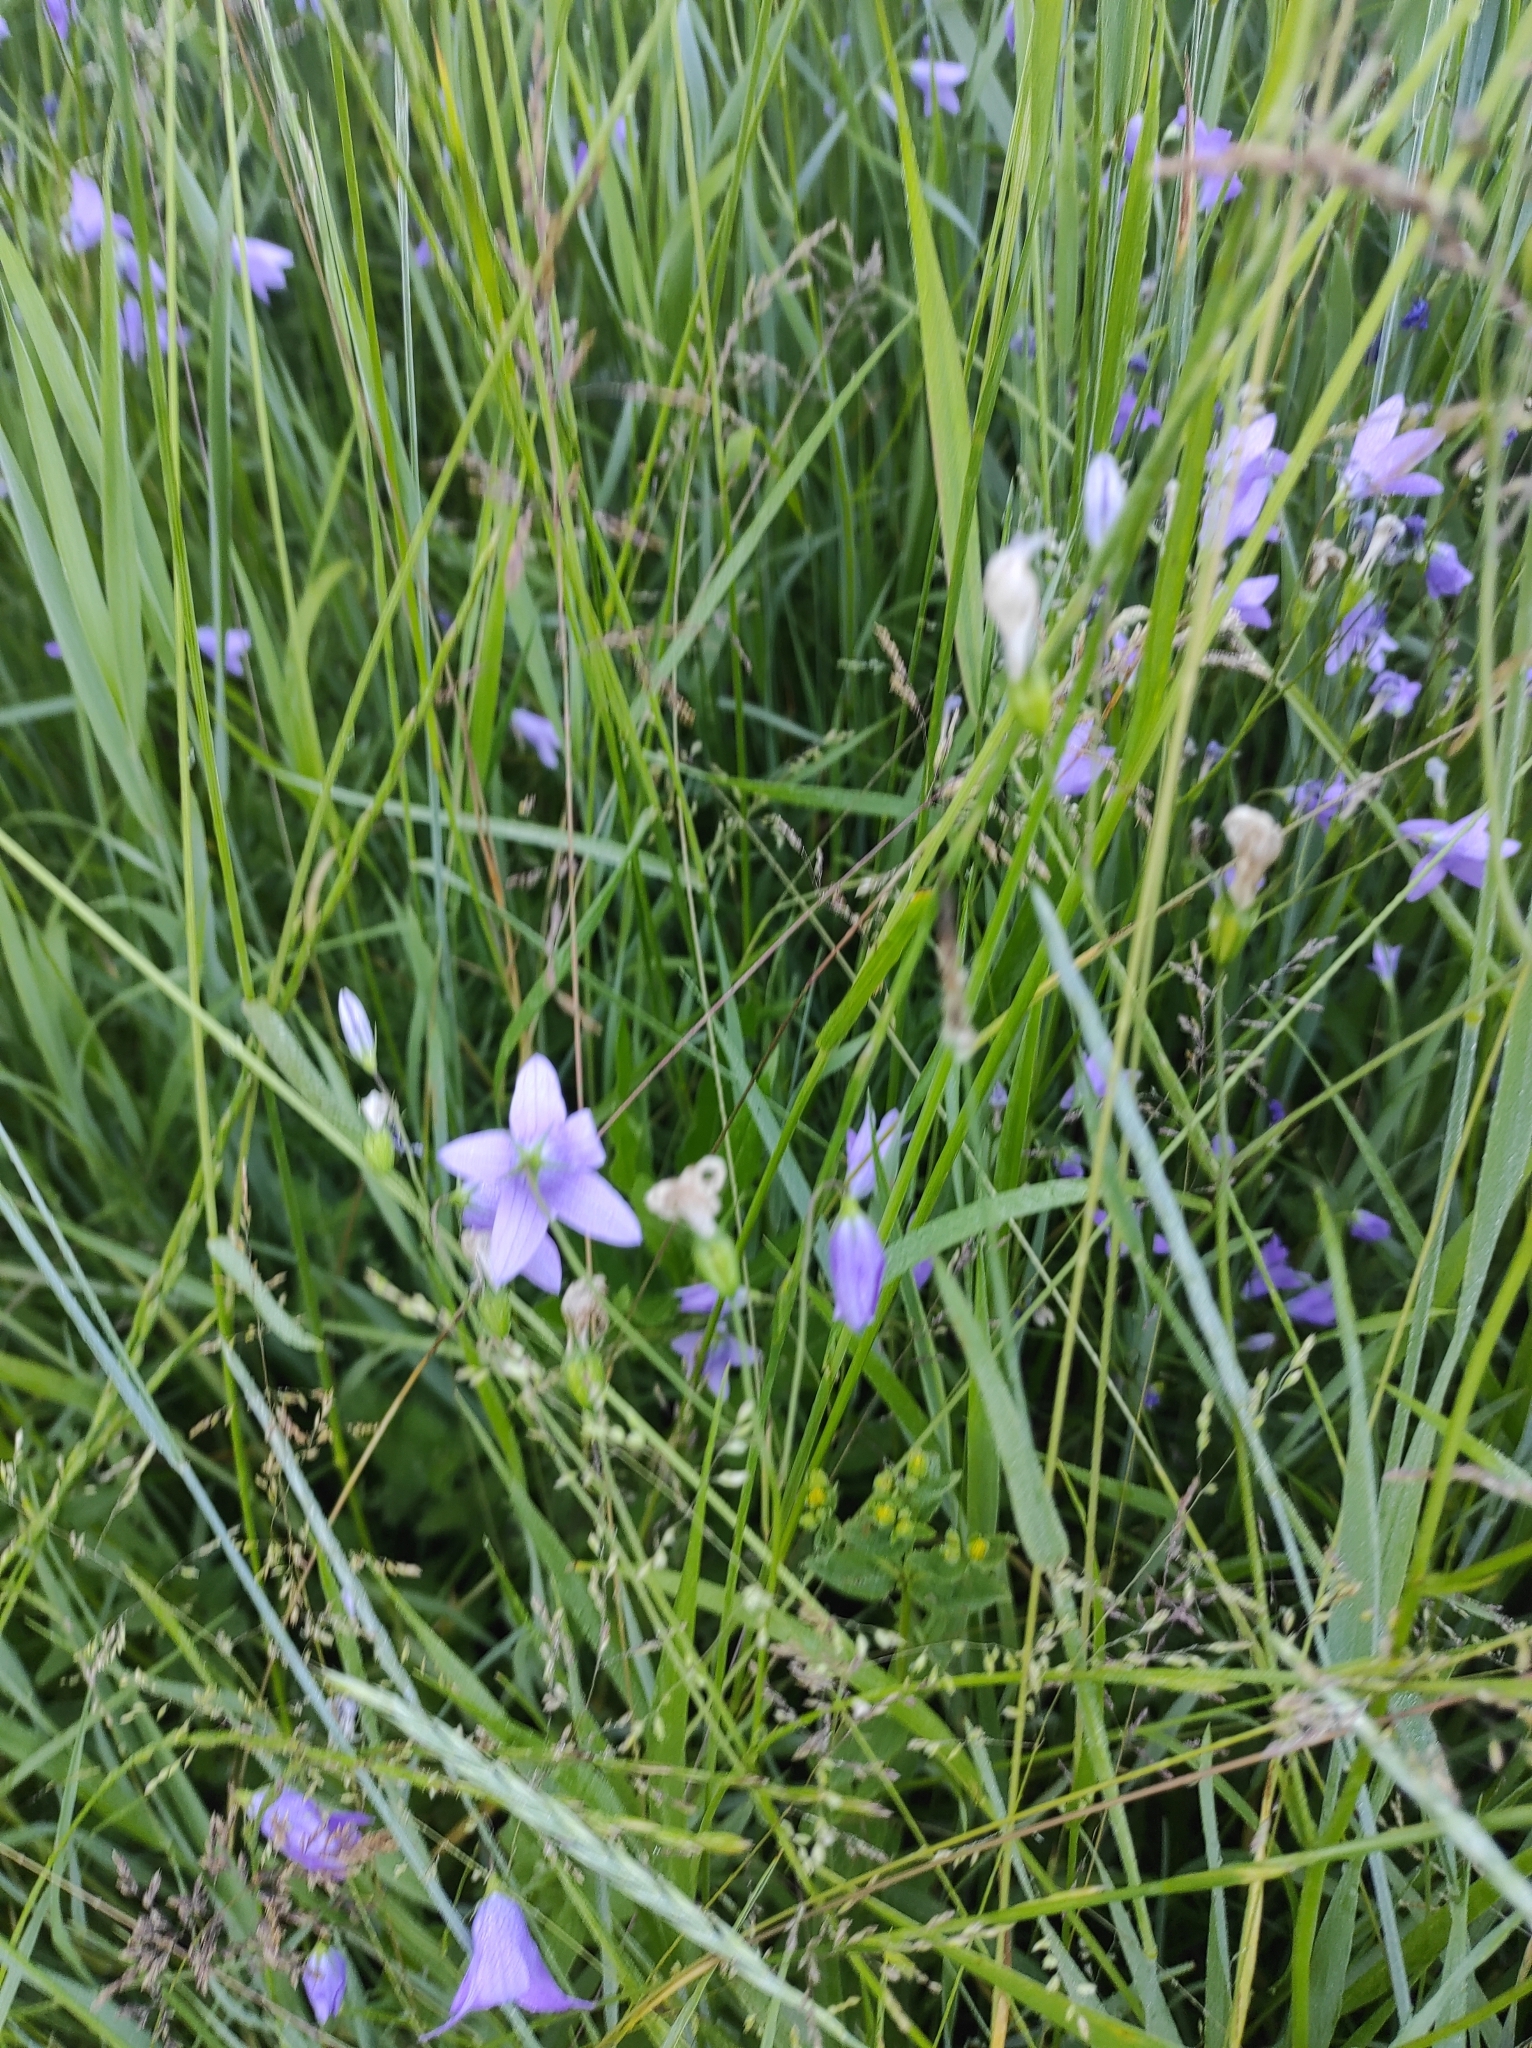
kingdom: Plantae
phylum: Tracheophyta
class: Magnoliopsida
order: Asterales
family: Campanulaceae
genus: Campanula
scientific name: Campanula patula
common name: Spreading bellflower
